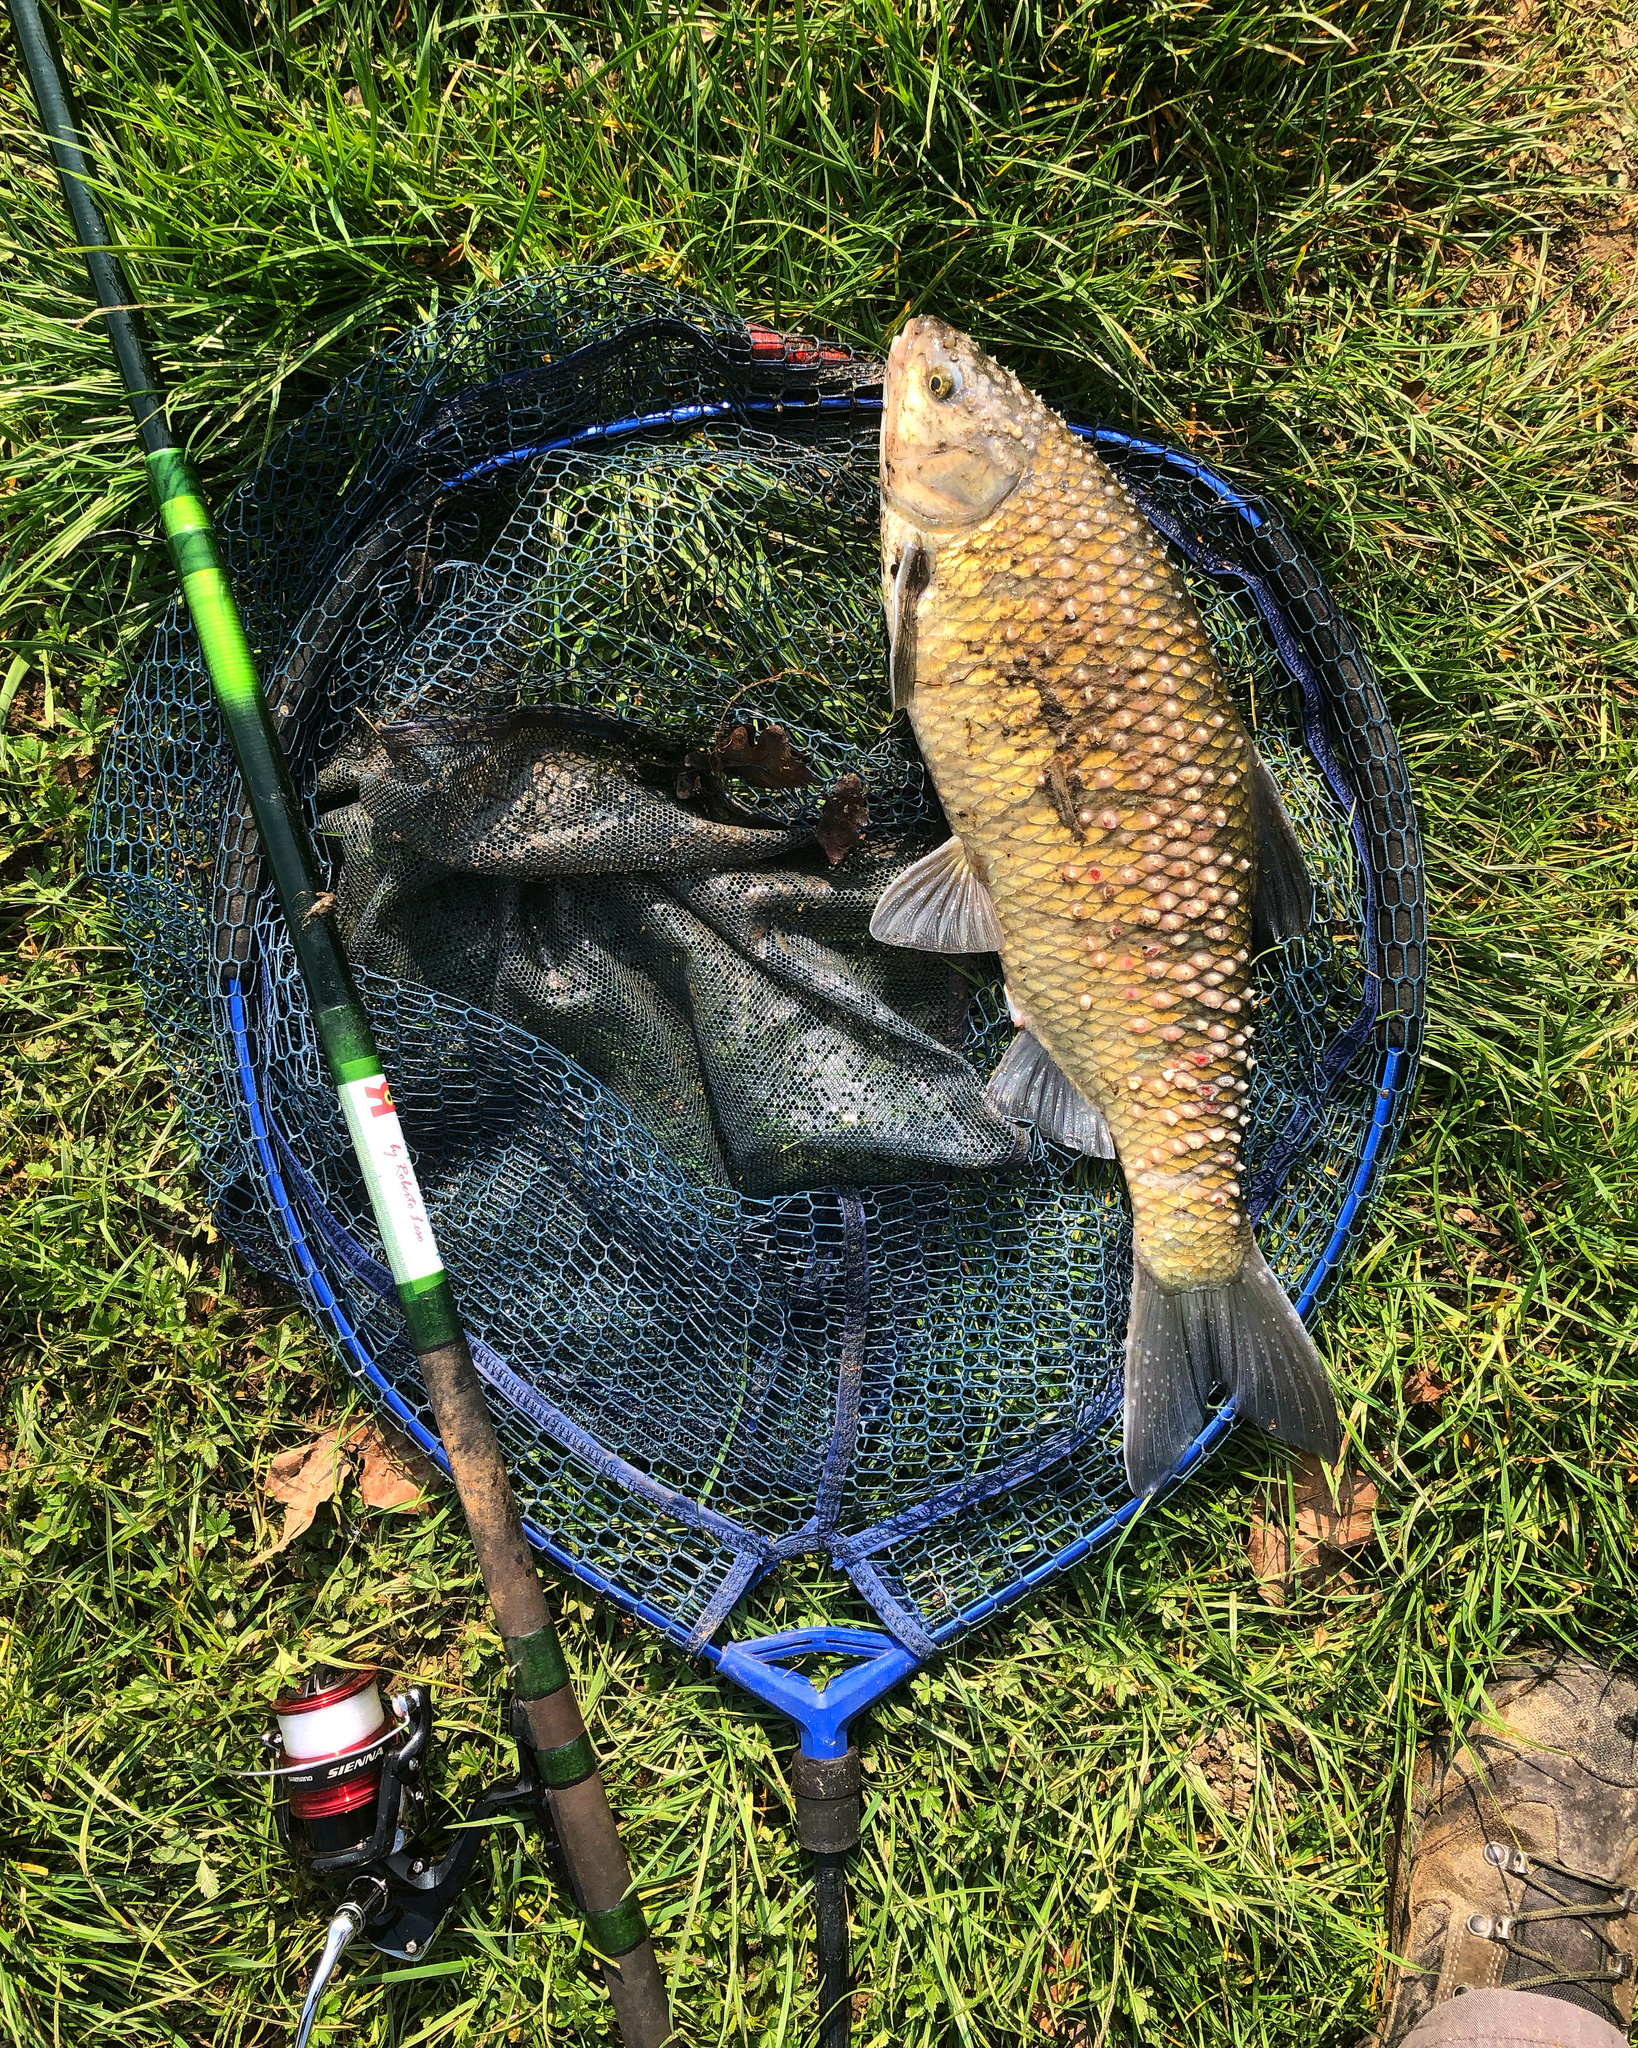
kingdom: Animalia
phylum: Chordata
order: Cypriniformes
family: Cyprinidae
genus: Rutilus
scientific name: Rutilus pigus
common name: Danube roach
